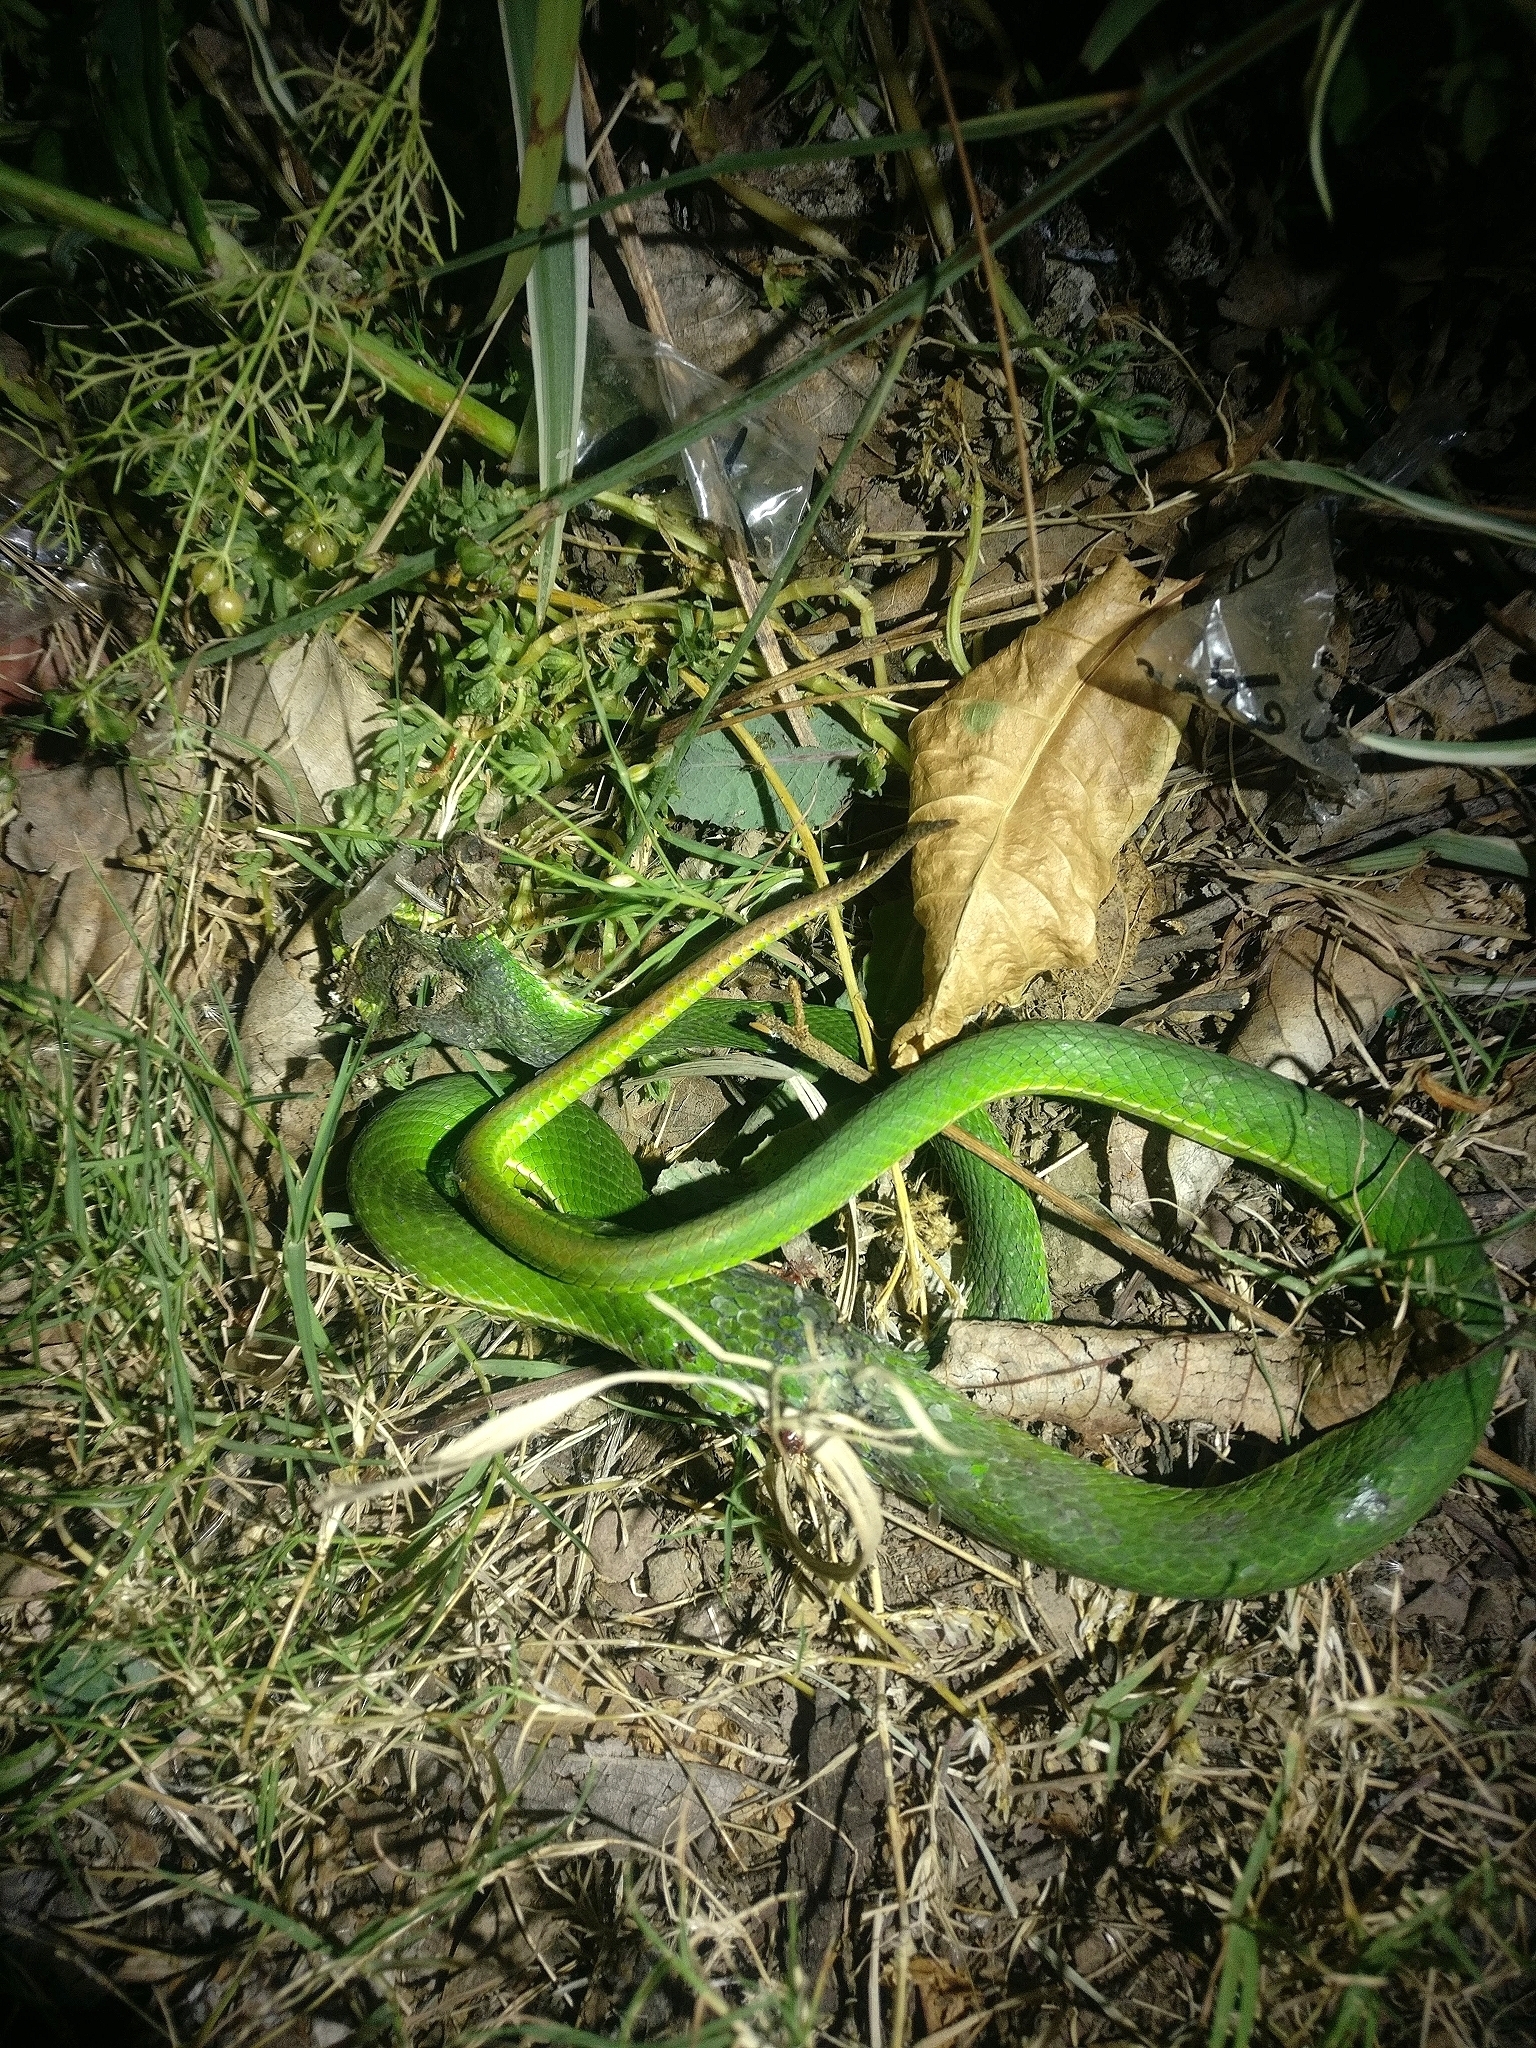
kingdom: Animalia
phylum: Chordata
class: Squamata
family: Viperidae
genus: Trimeresurus
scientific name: Trimeresurus septentrionalis
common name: Himalayan white-lipped pitviper
